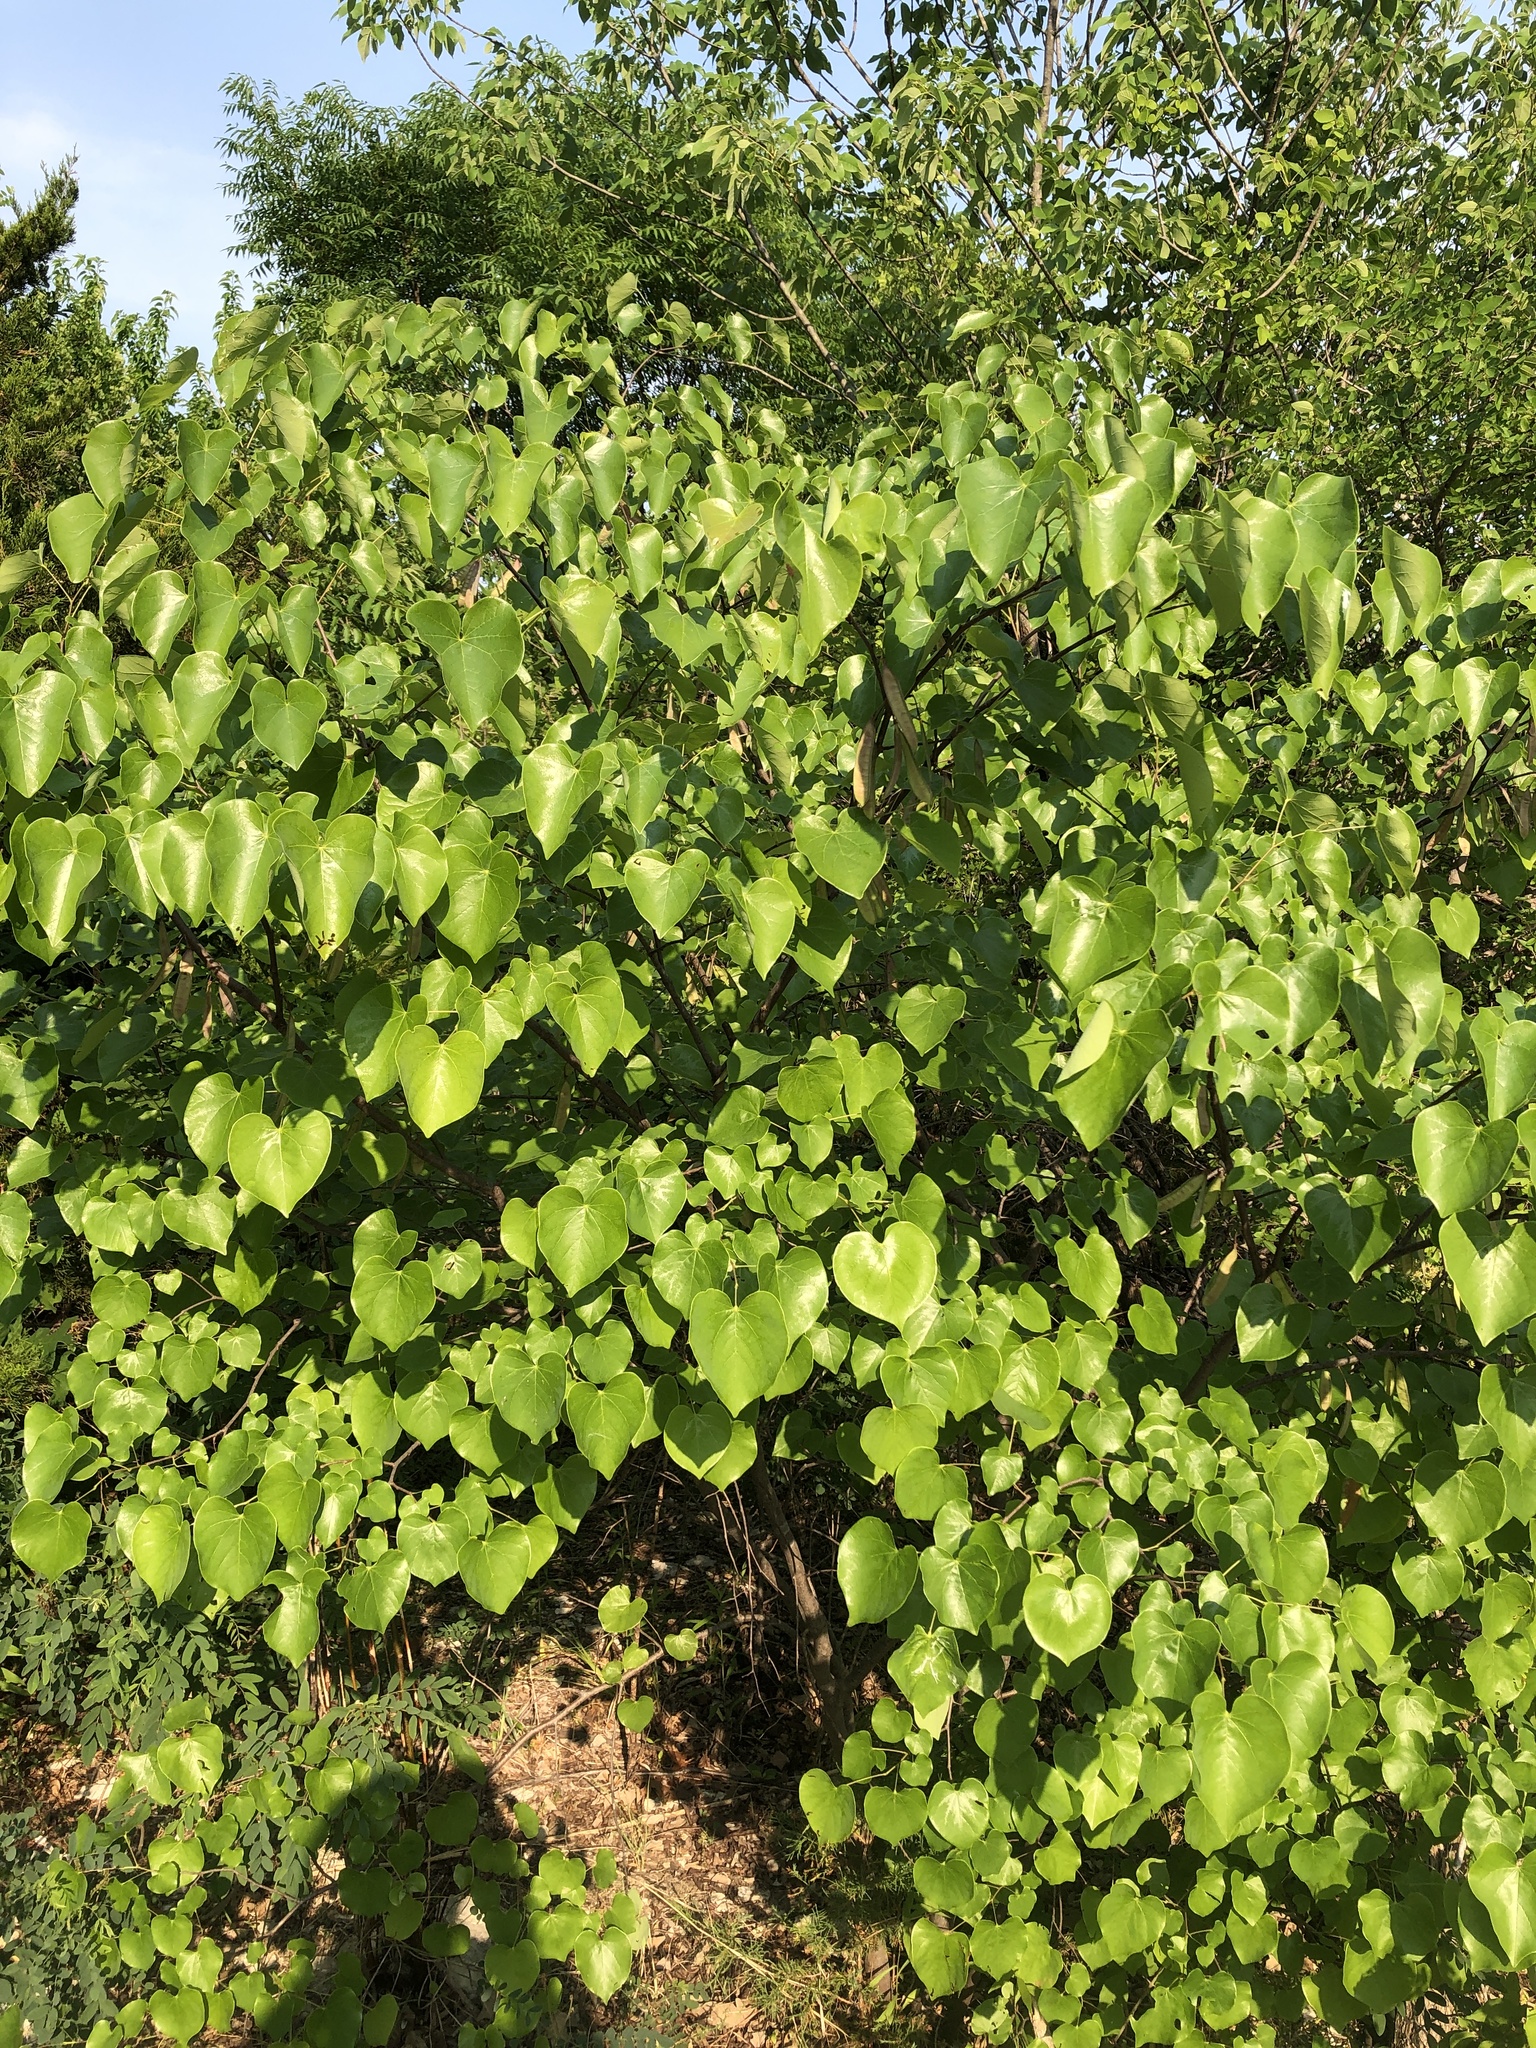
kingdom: Plantae
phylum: Tracheophyta
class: Magnoliopsida
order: Fabales
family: Fabaceae
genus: Cercis
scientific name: Cercis canadensis
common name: Eastern redbud
